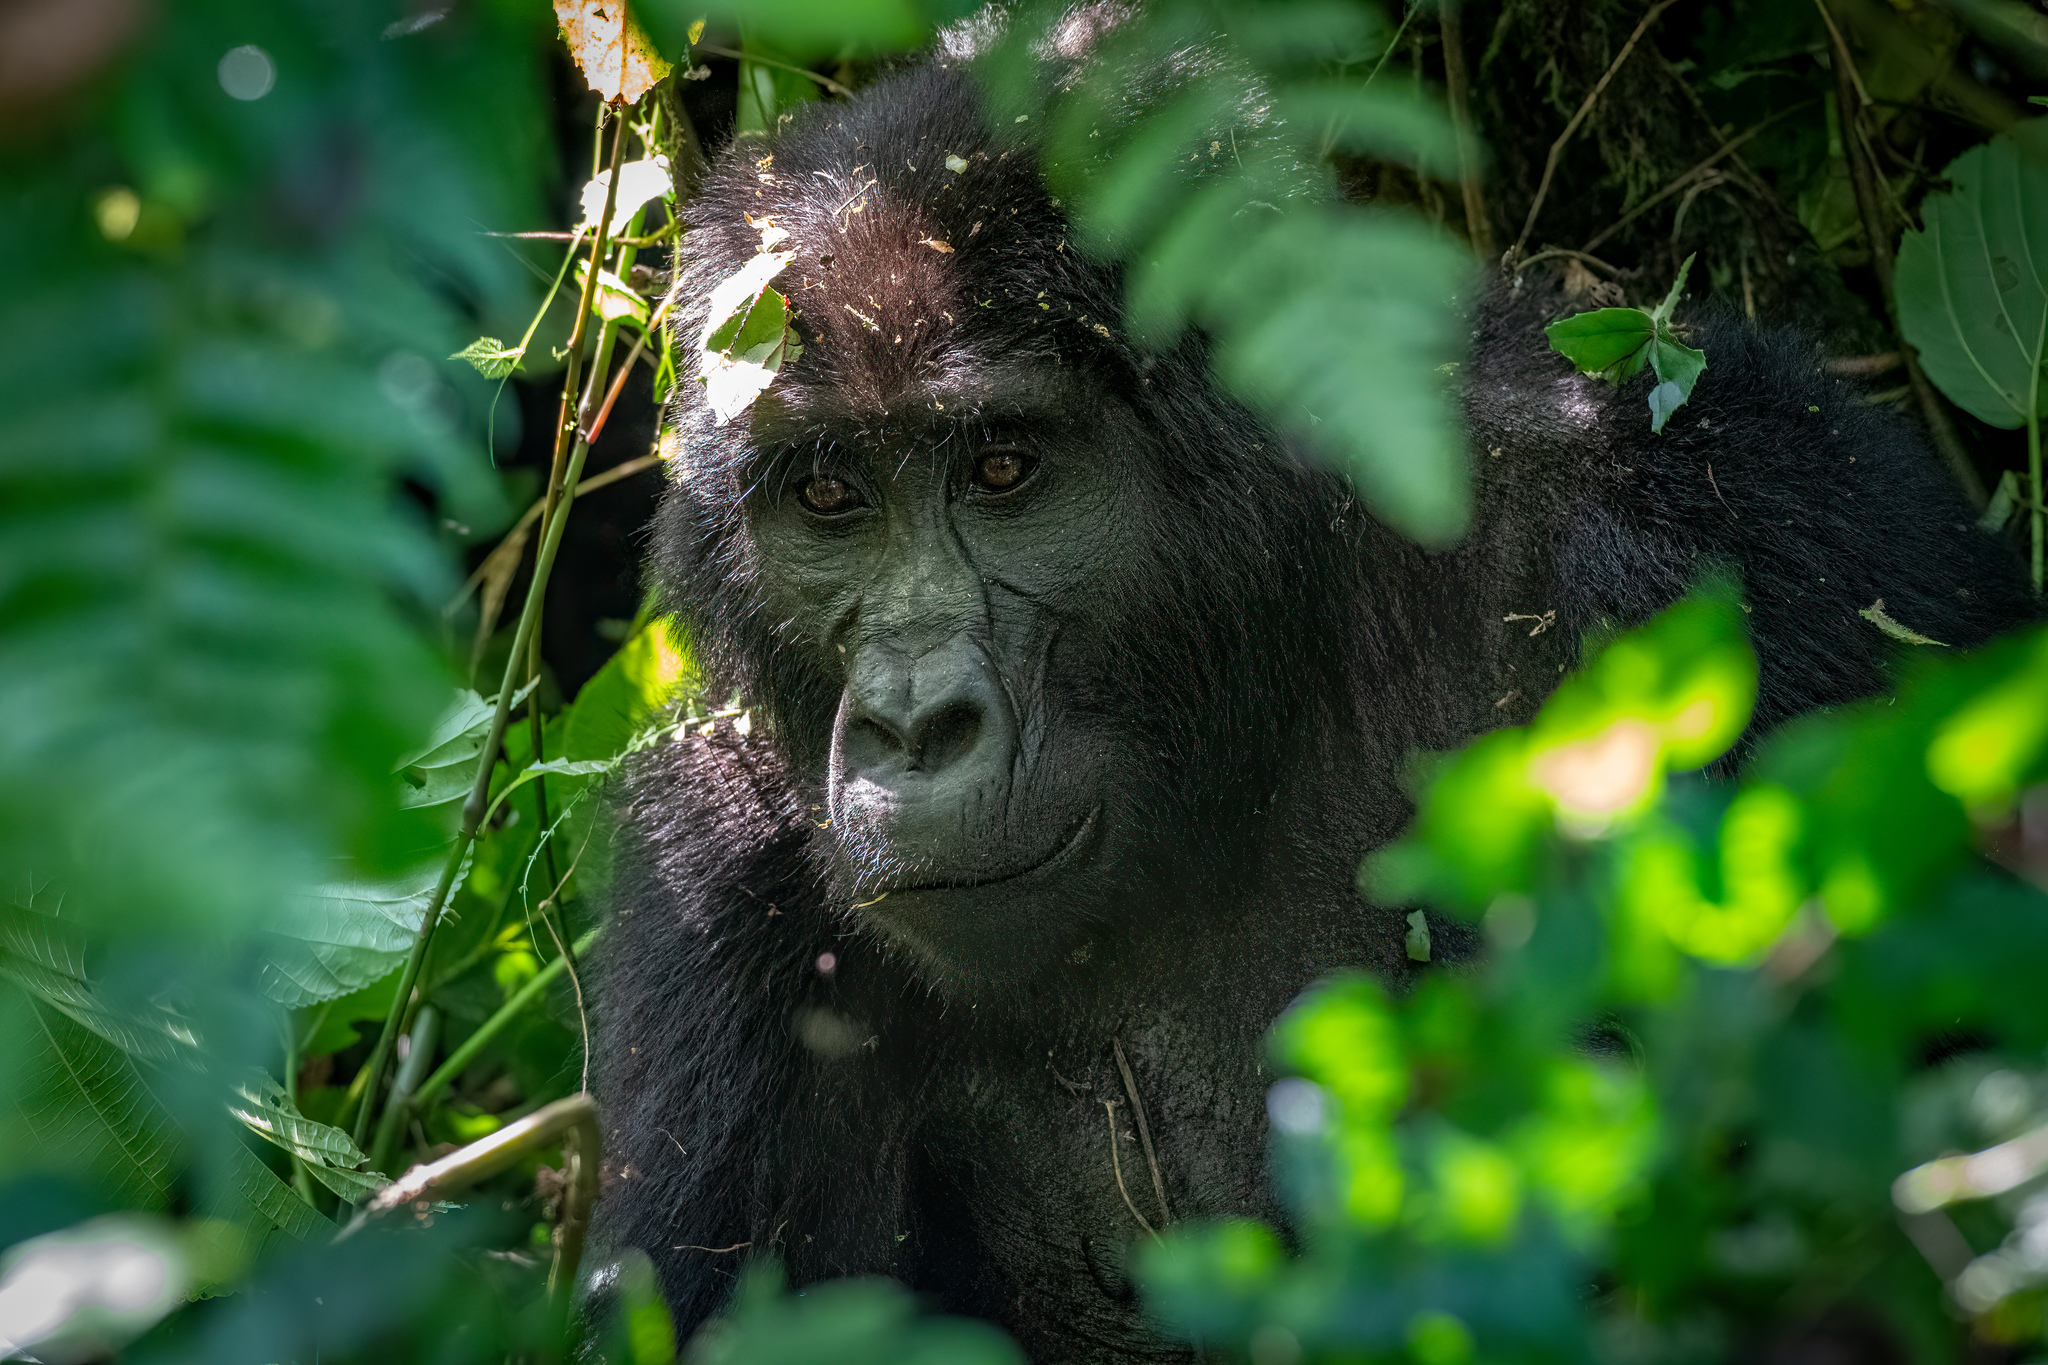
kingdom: Animalia
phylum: Chordata
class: Mammalia
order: Primates
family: Hominidae
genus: Gorilla
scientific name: Gorilla beringei
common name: Eastern gorilla
